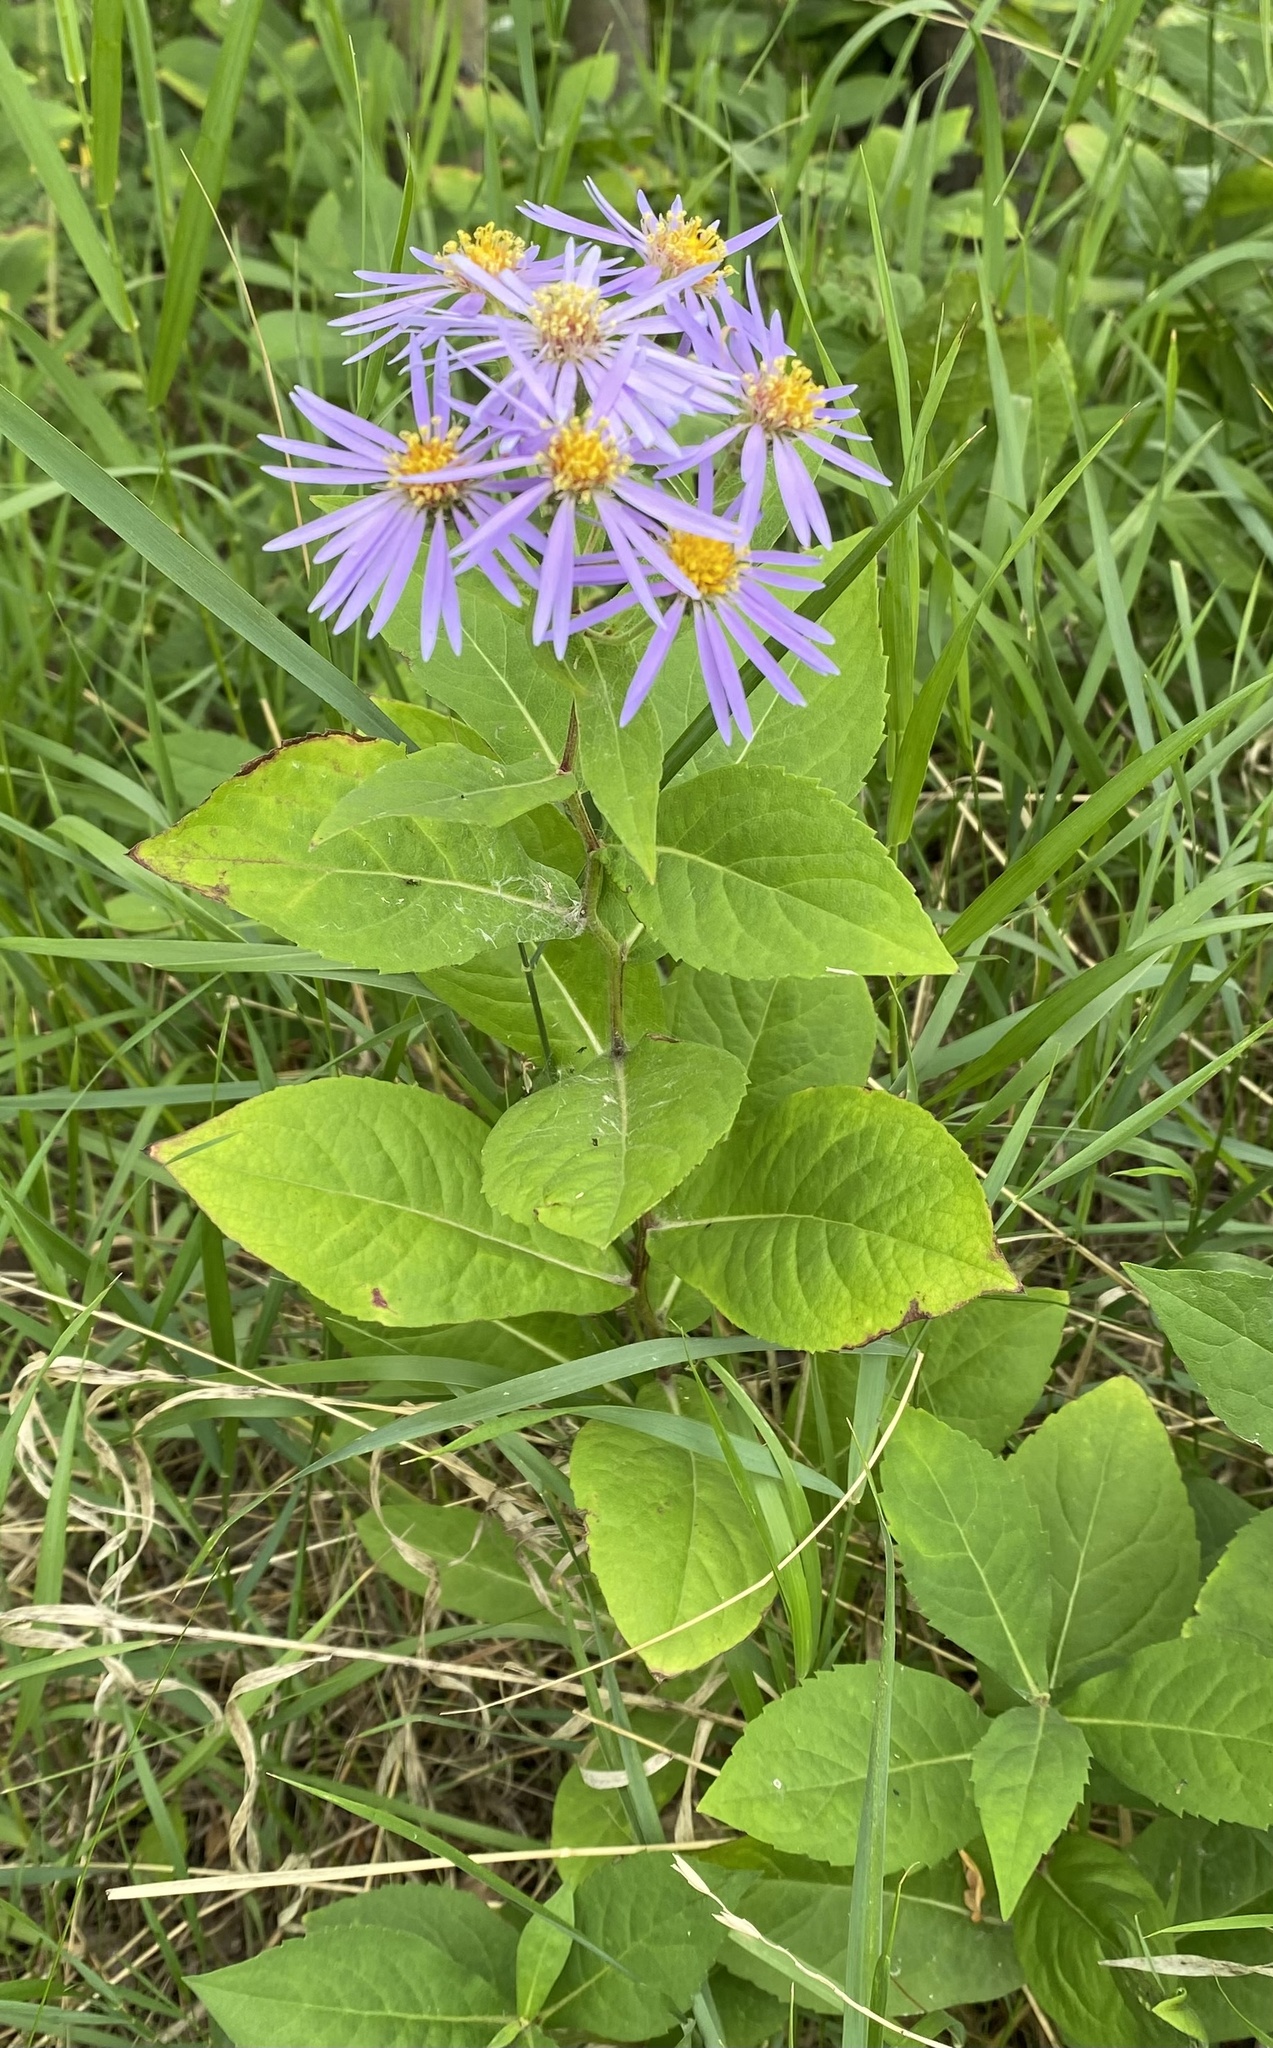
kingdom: Plantae
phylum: Tracheophyta
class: Magnoliopsida
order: Asterales
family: Asteraceae
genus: Eurybia
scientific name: Eurybia conspicua
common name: Showy aster
